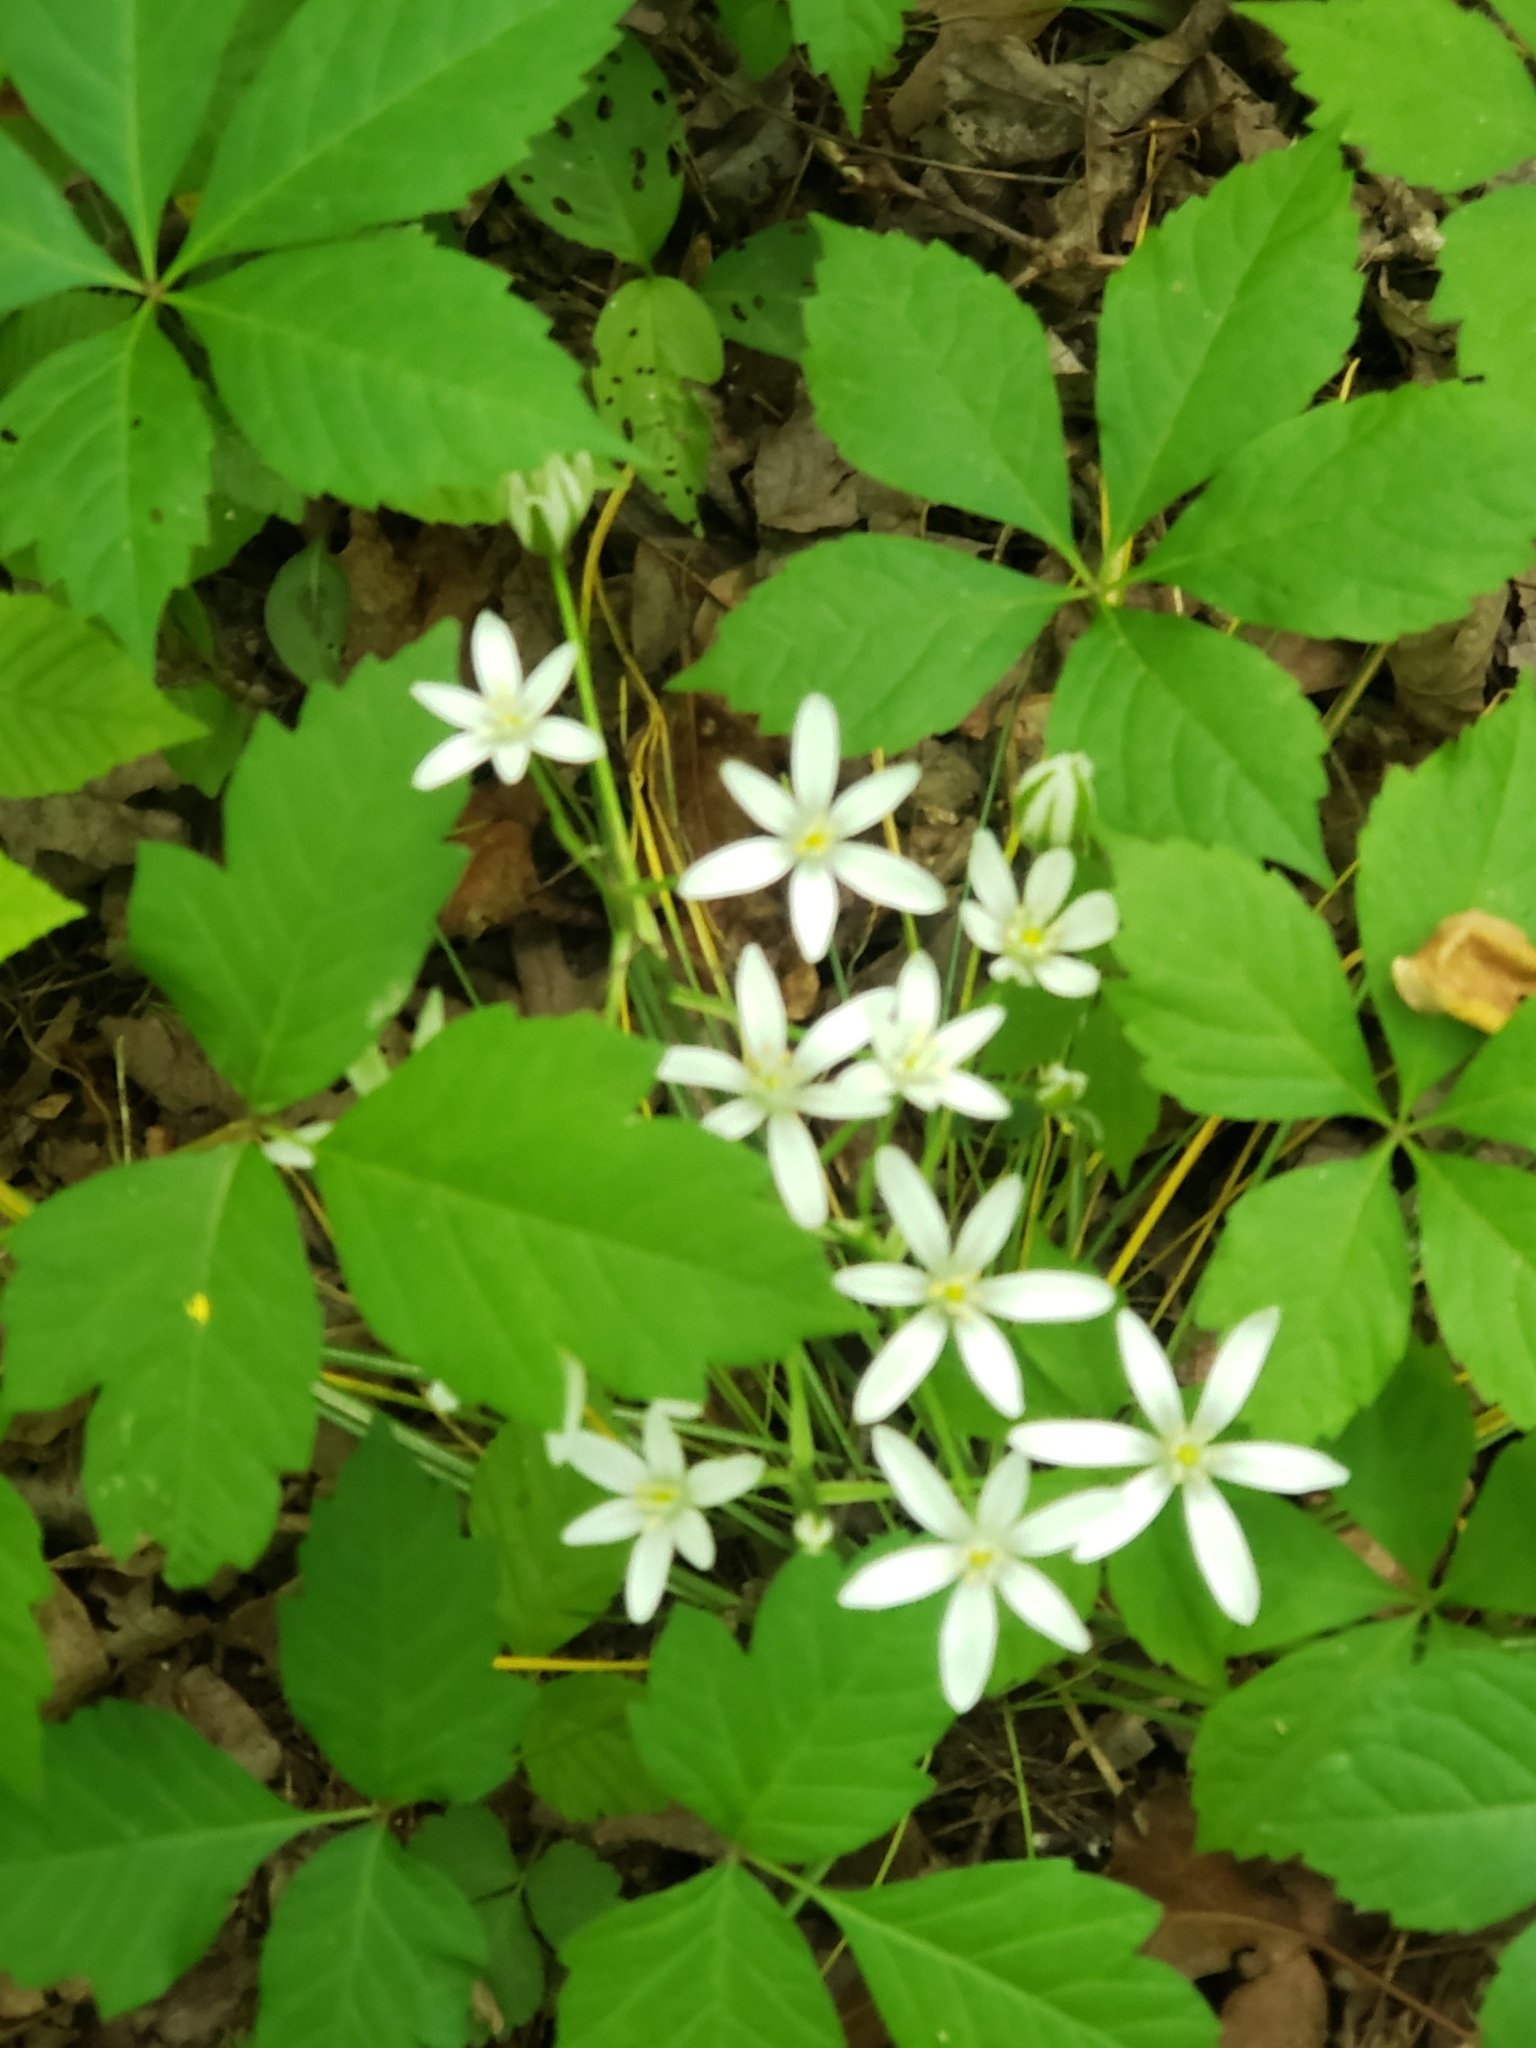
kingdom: Plantae
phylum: Tracheophyta
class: Liliopsida
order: Asparagales
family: Asparagaceae
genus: Ornithogalum
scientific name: Ornithogalum umbellatum
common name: Garden star-of-bethlehem
